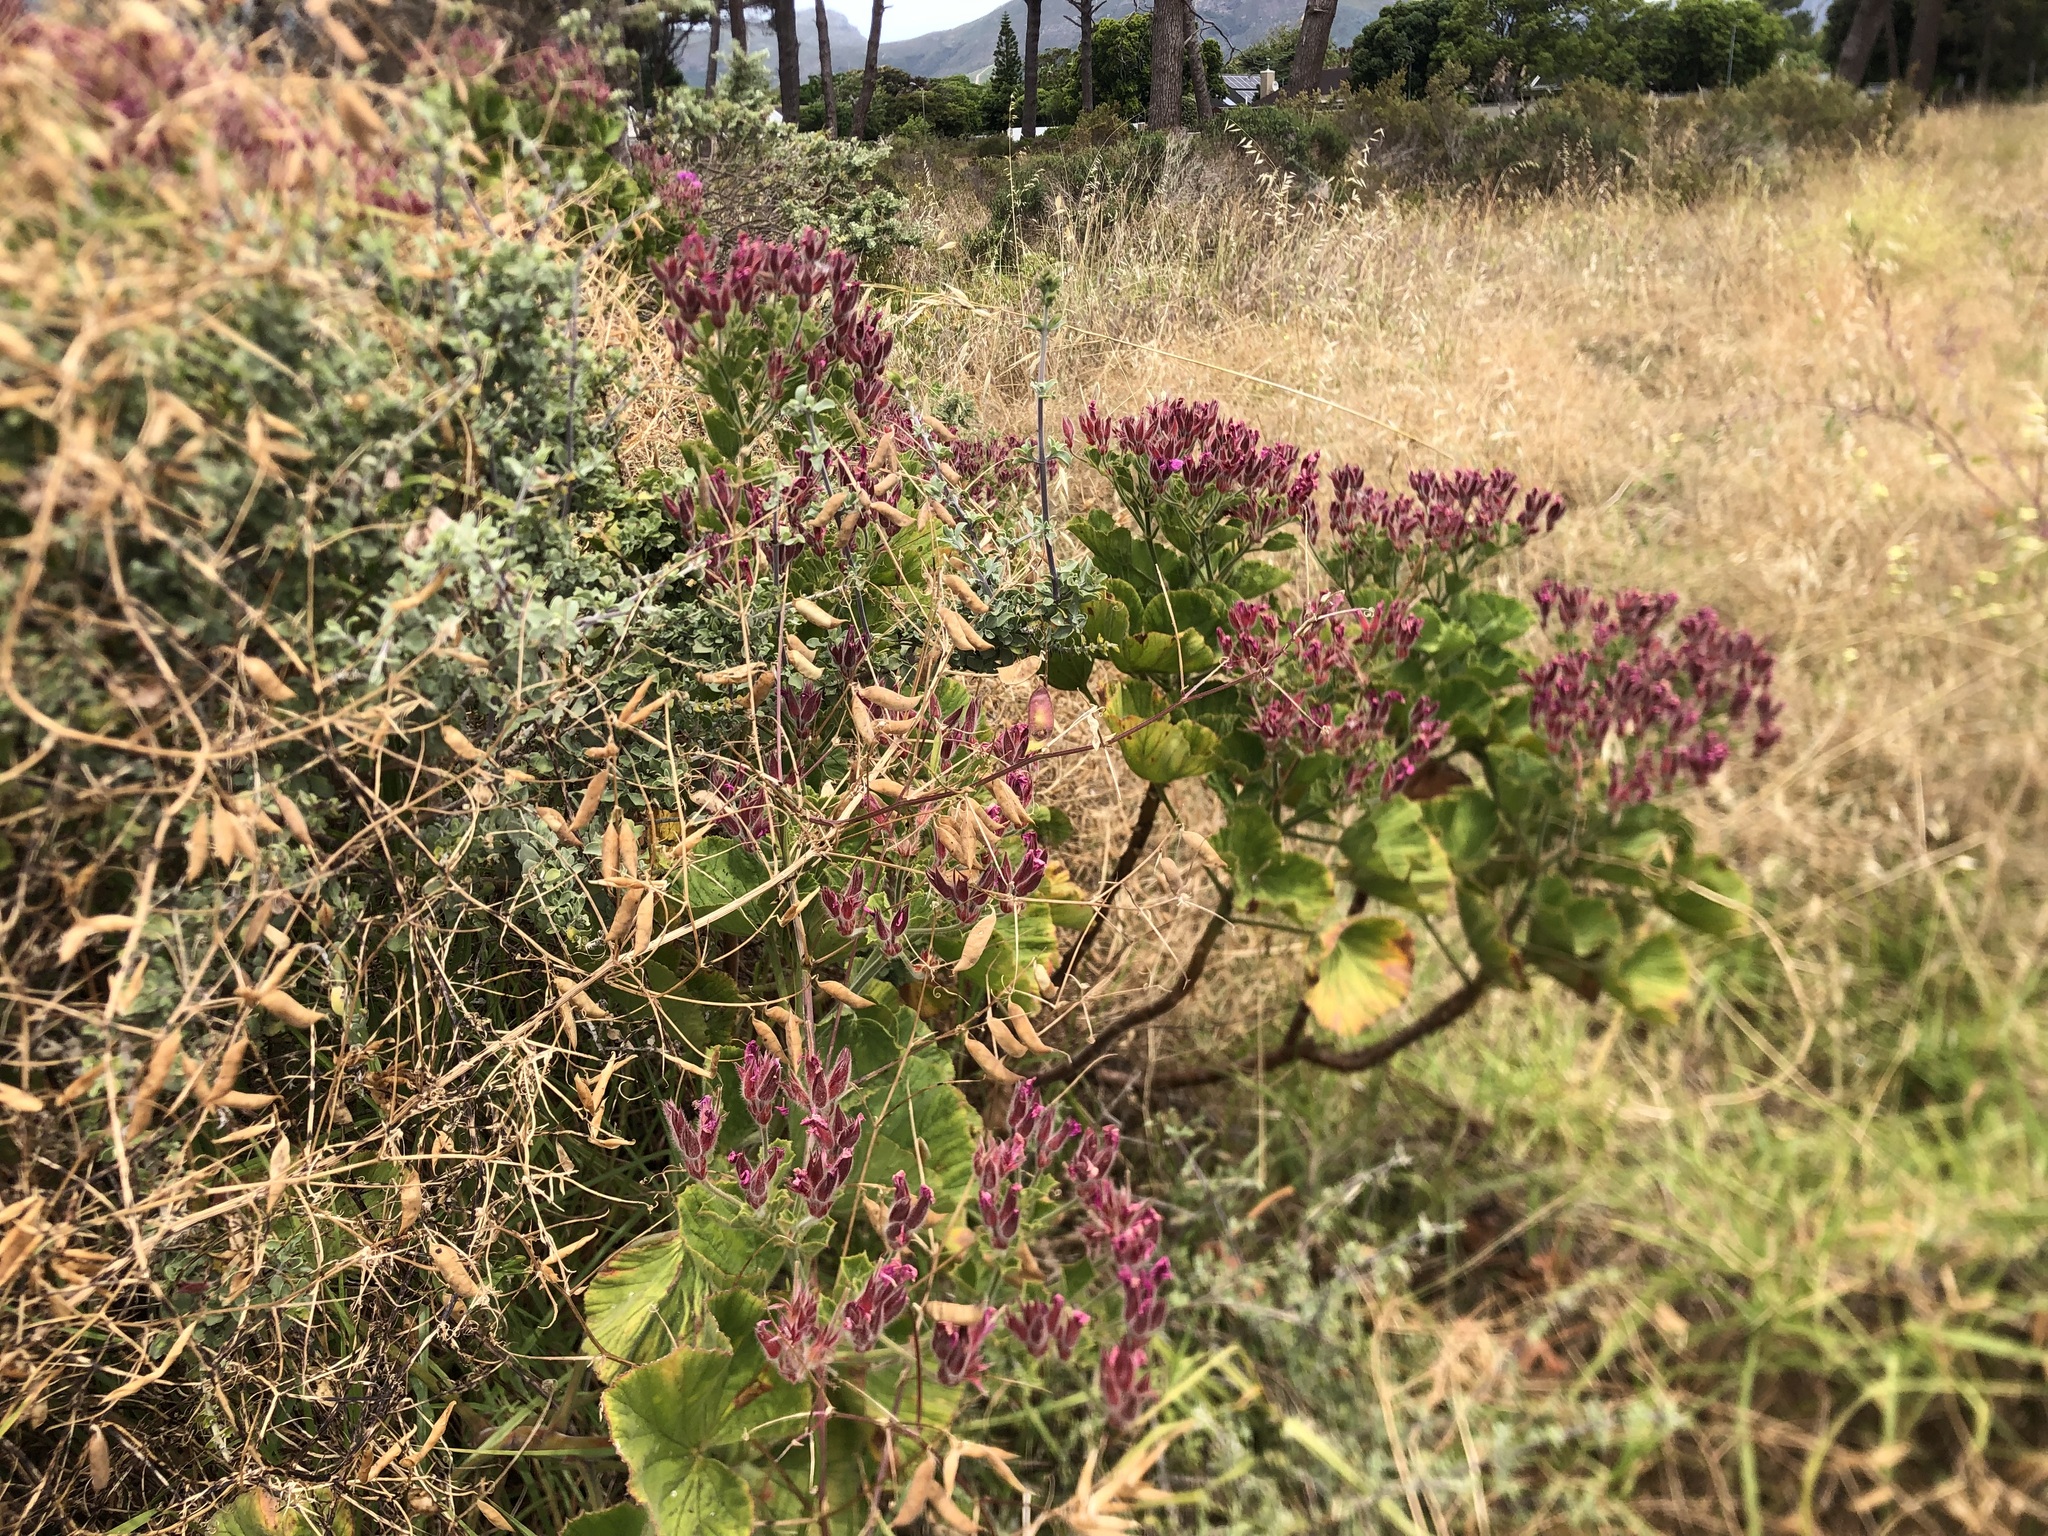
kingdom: Plantae
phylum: Tracheophyta
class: Magnoliopsida
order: Geraniales
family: Geraniaceae
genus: Pelargonium
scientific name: Pelargonium cucullatum
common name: Tree pelargonium
